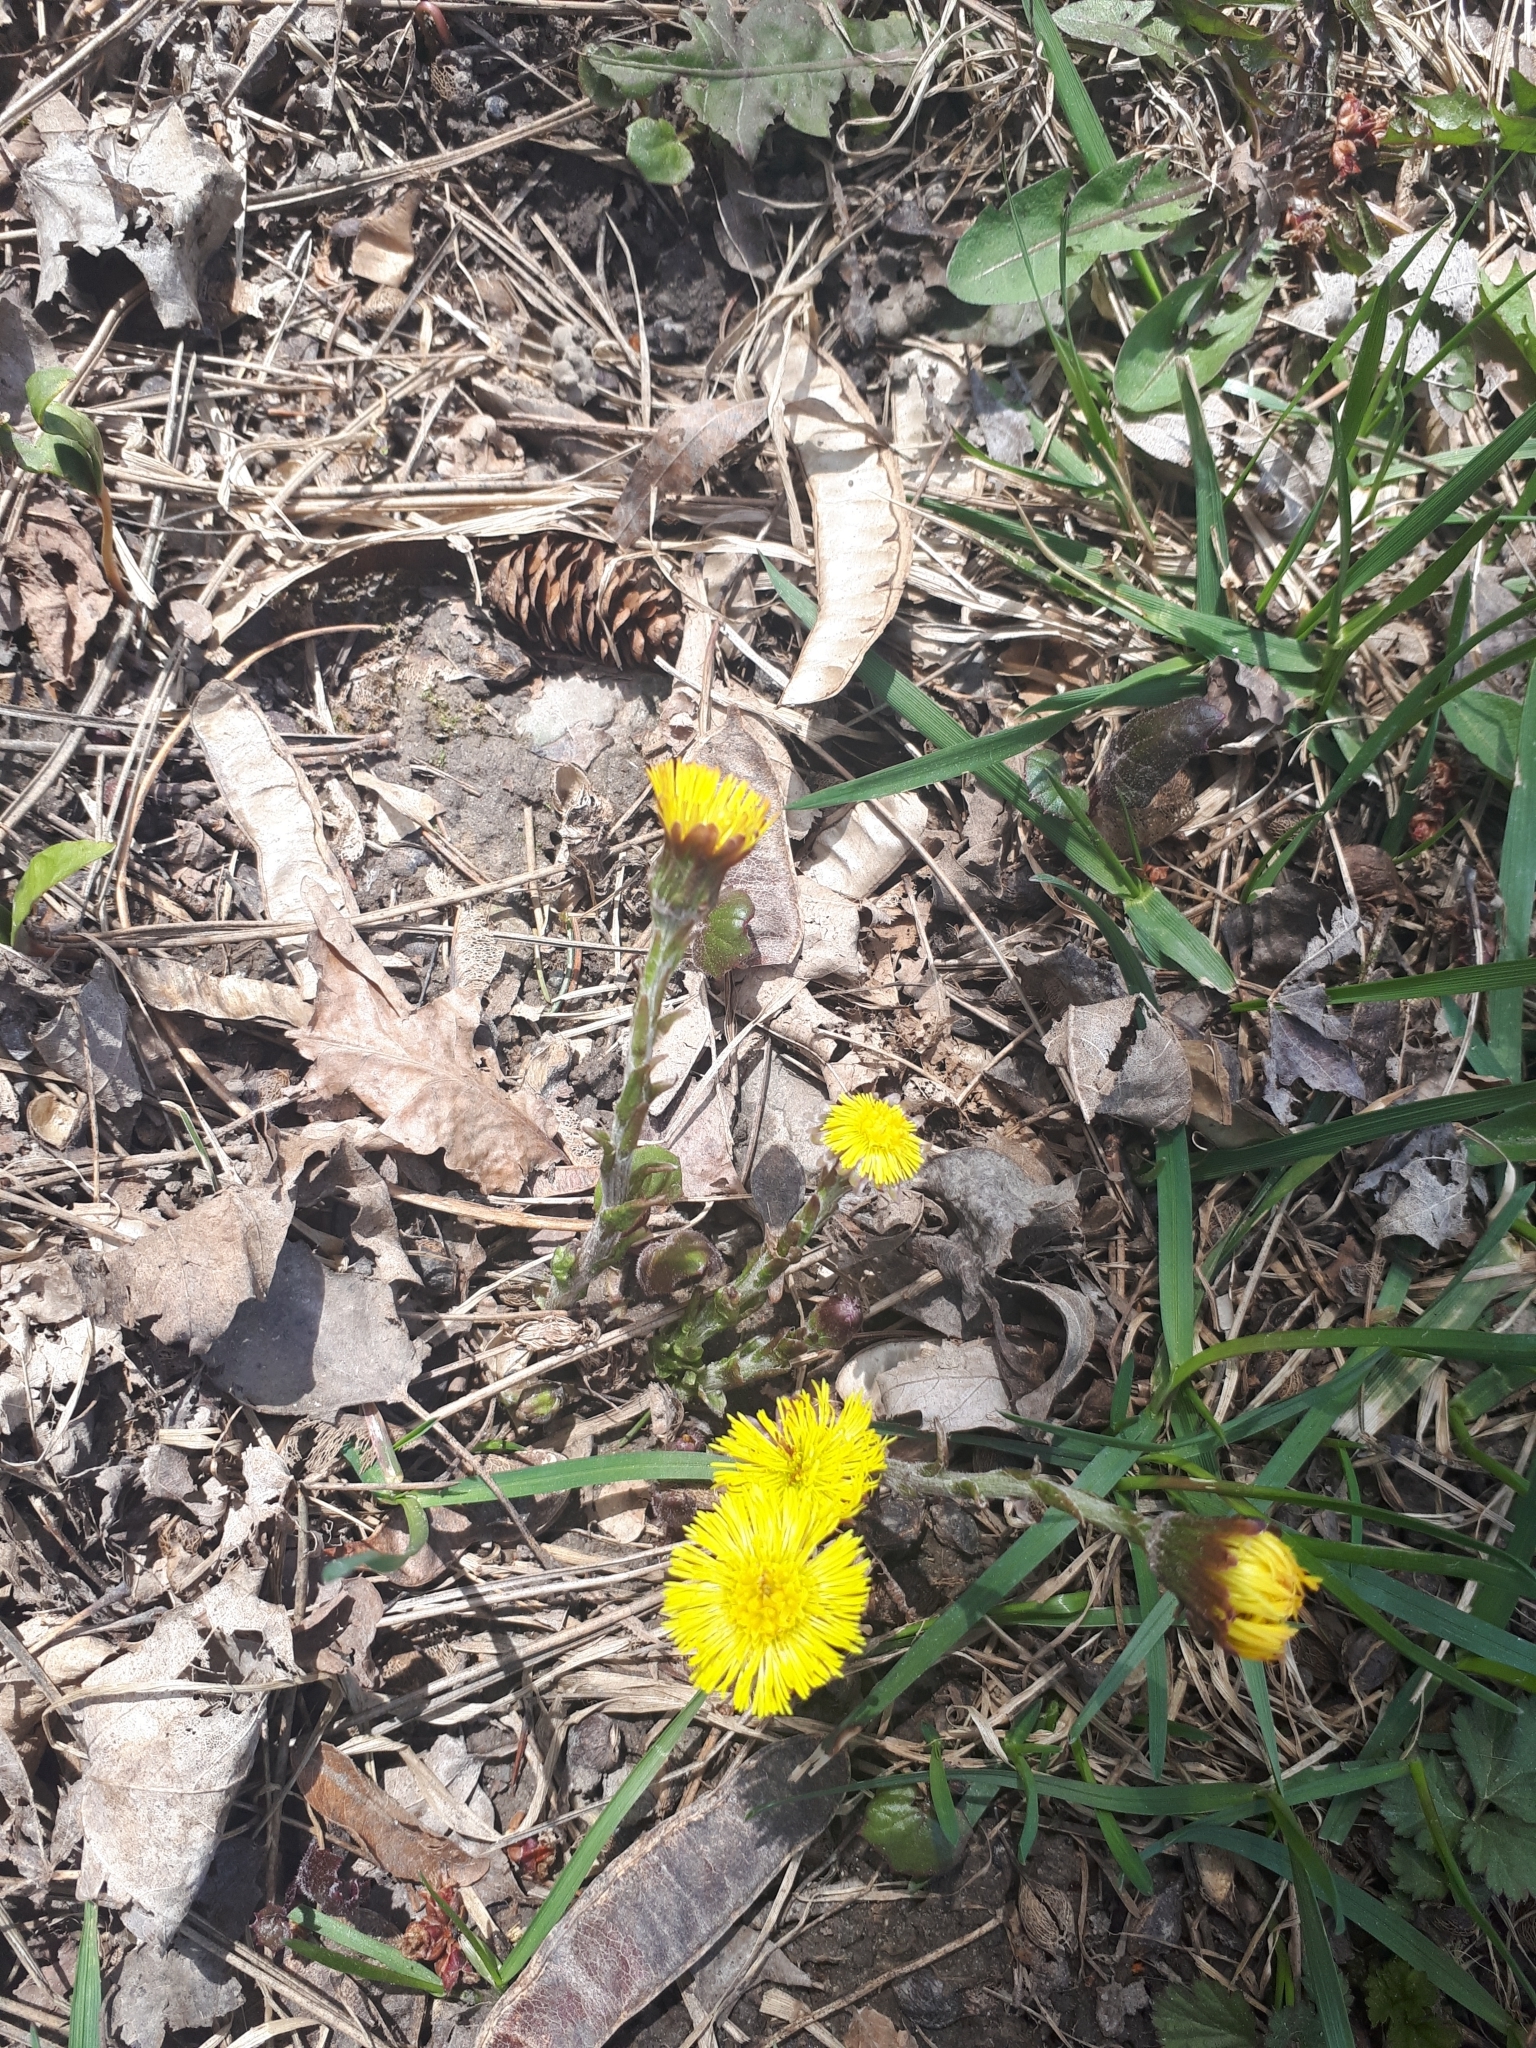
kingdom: Plantae
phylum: Tracheophyta
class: Magnoliopsida
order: Asterales
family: Asteraceae
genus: Tussilago
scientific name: Tussilago farfara
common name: Coltsfoot
